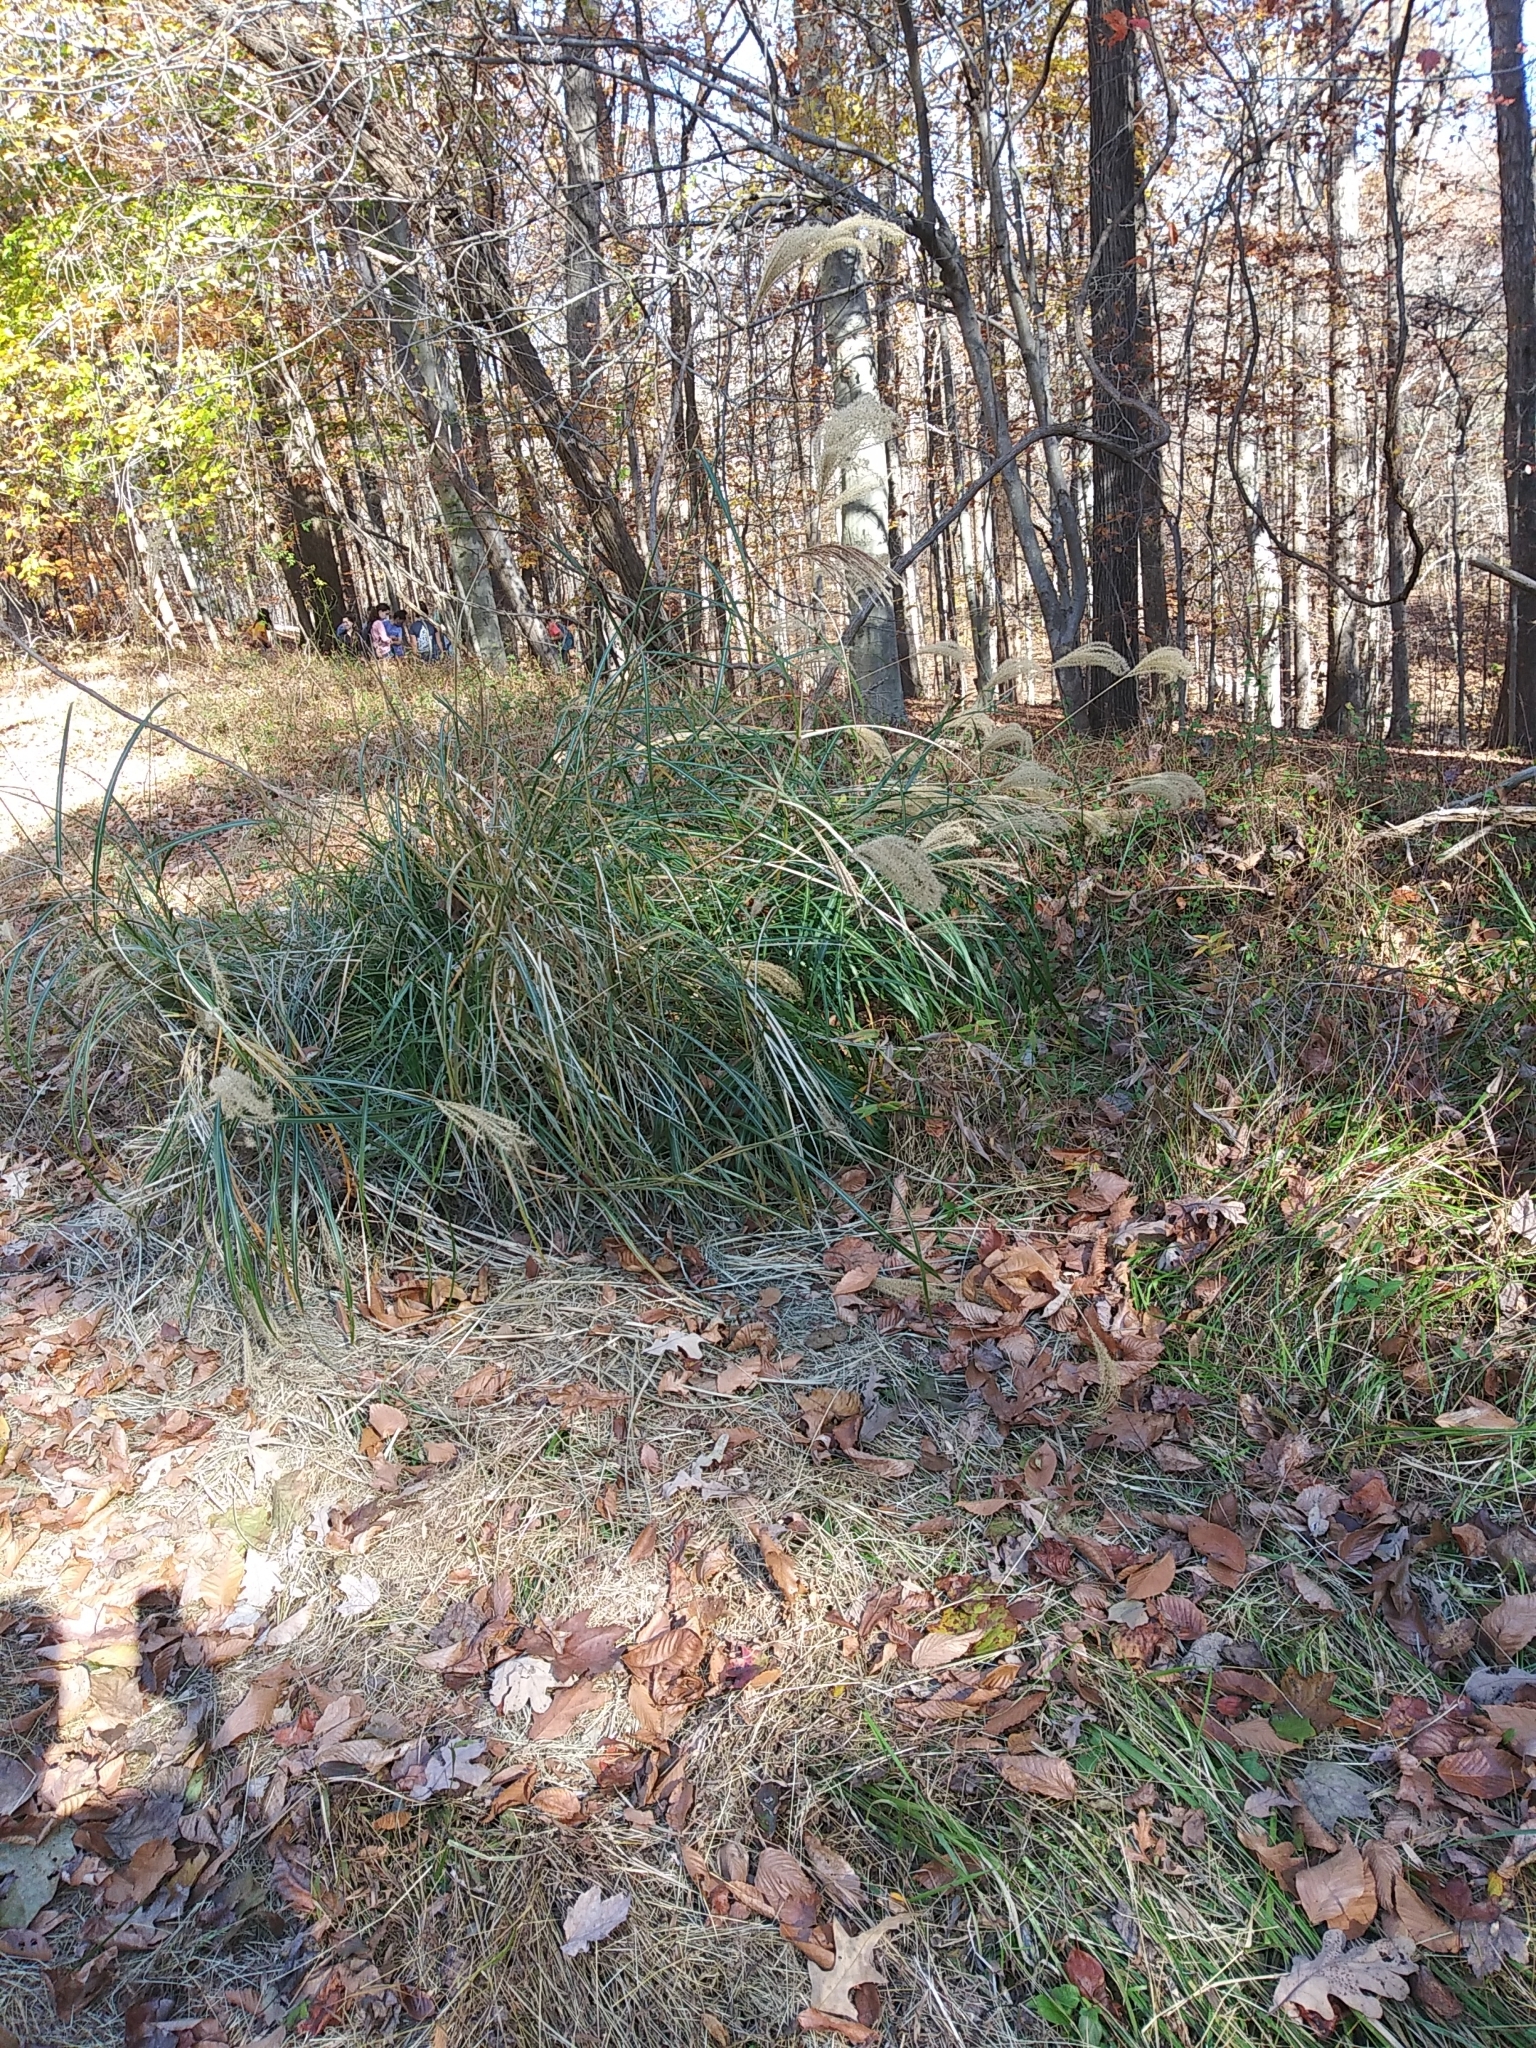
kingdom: Plantae
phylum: Tracheophyta
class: Liliopsida
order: Poales
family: Poaceae
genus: Miscanthus
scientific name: Miscanthus sinensis
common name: Chinese silvergrass
